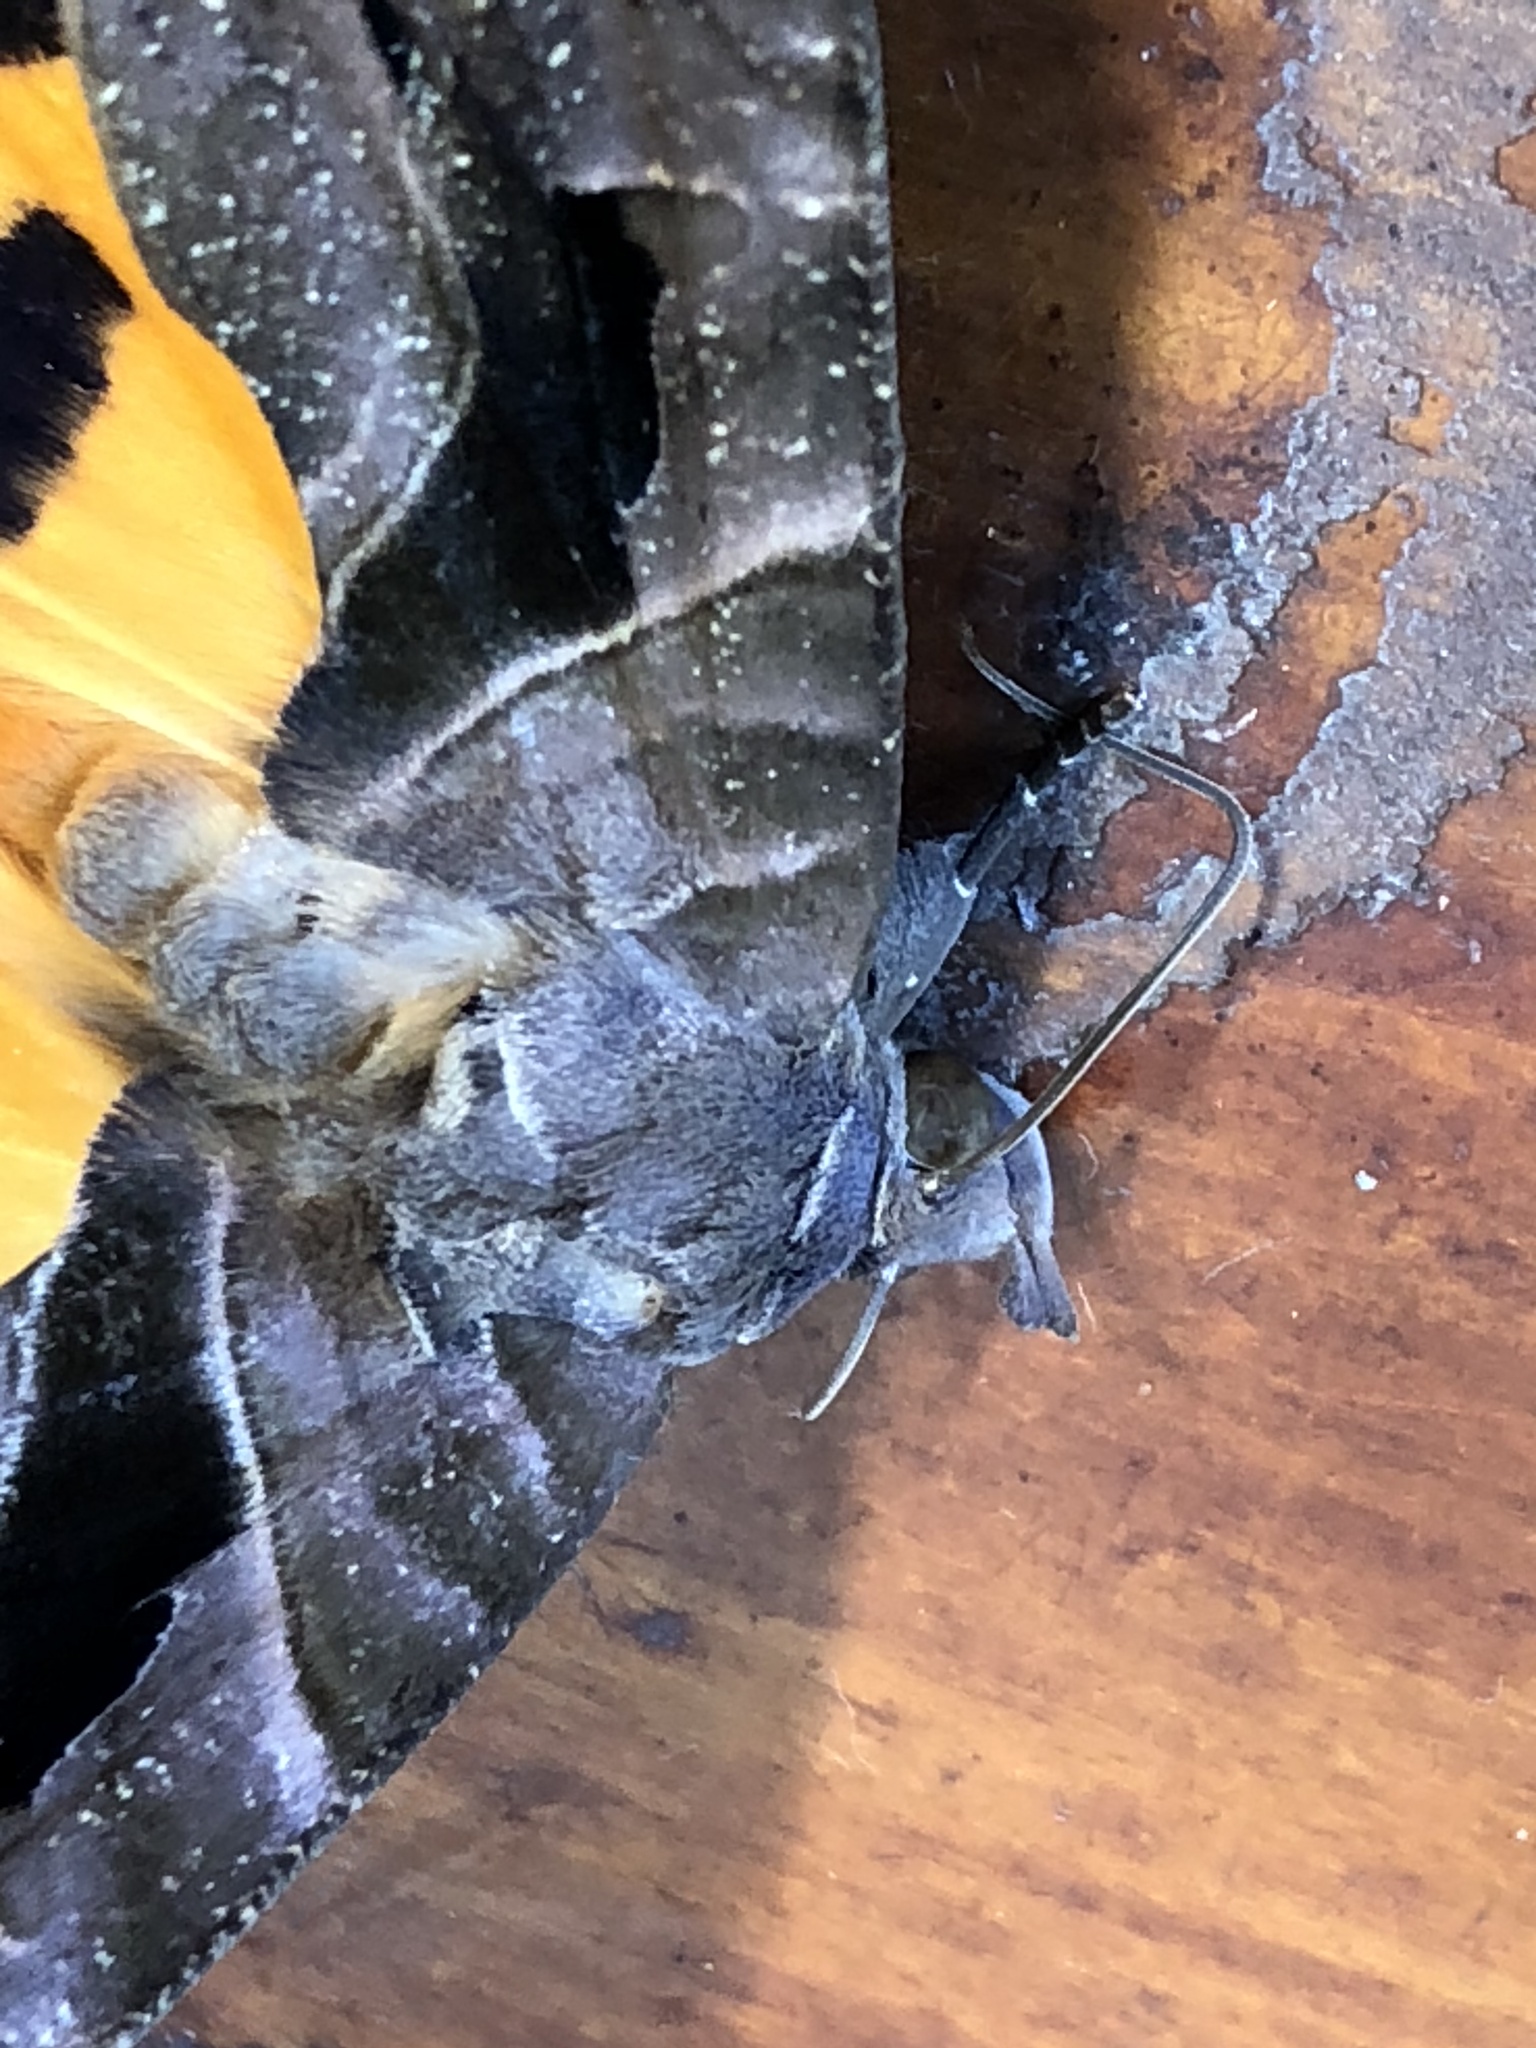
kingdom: Animalia
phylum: Arthropoda
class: Insecta
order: Lepidoptera
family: Erebidae
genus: Eudocima
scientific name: Eudocima memorans
